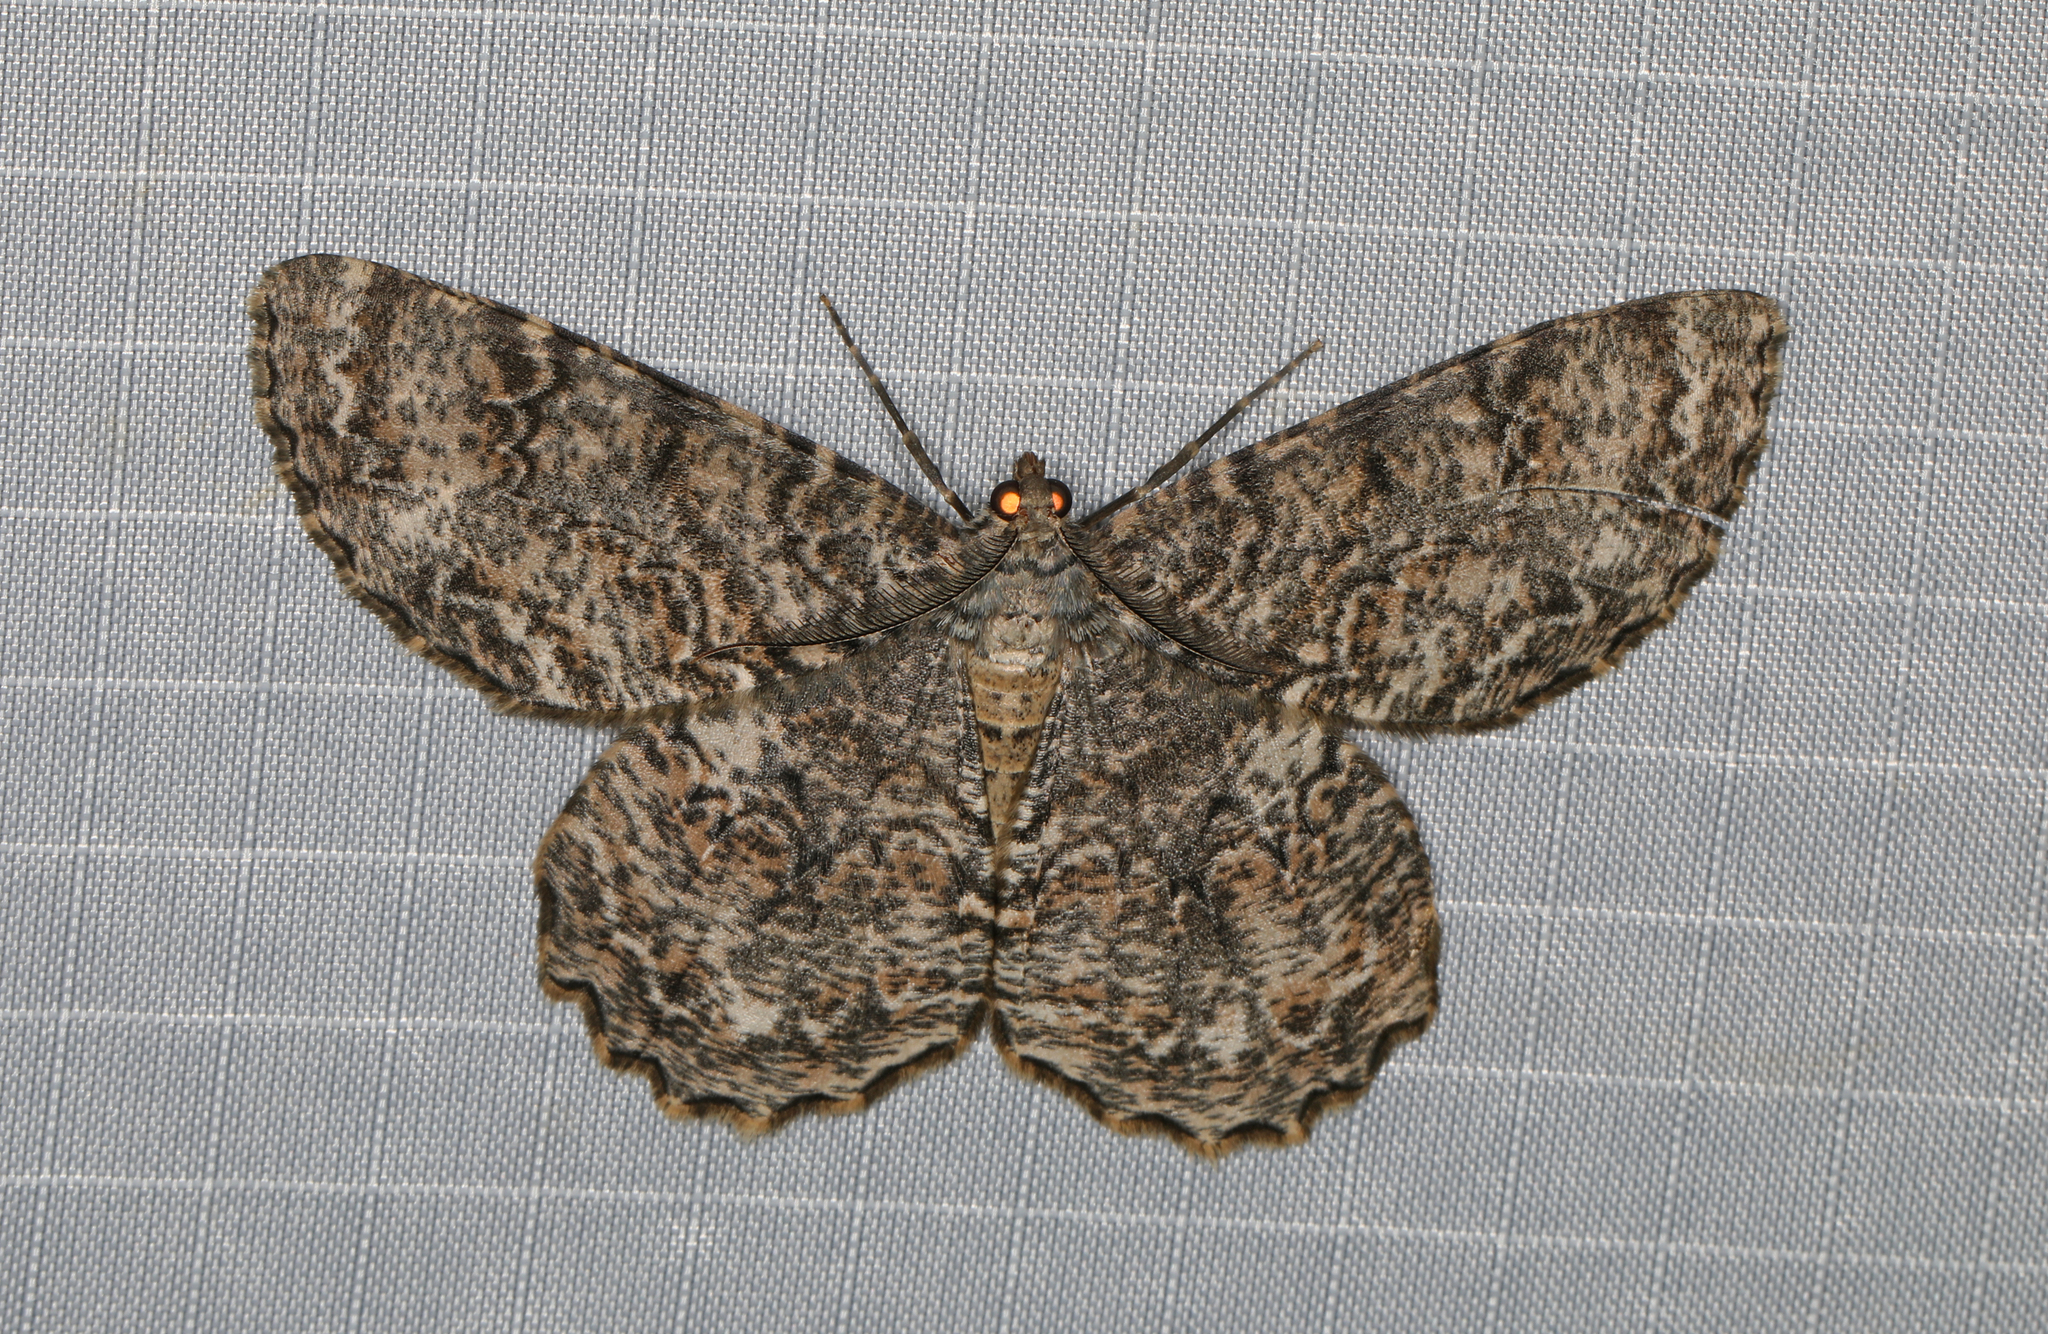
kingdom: Animalia
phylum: Arthropoda
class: Insecta
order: Lepidoptera
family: Geometridae
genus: Epimecis
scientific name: Epimecis hortaria
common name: Tulip-tree beauty
